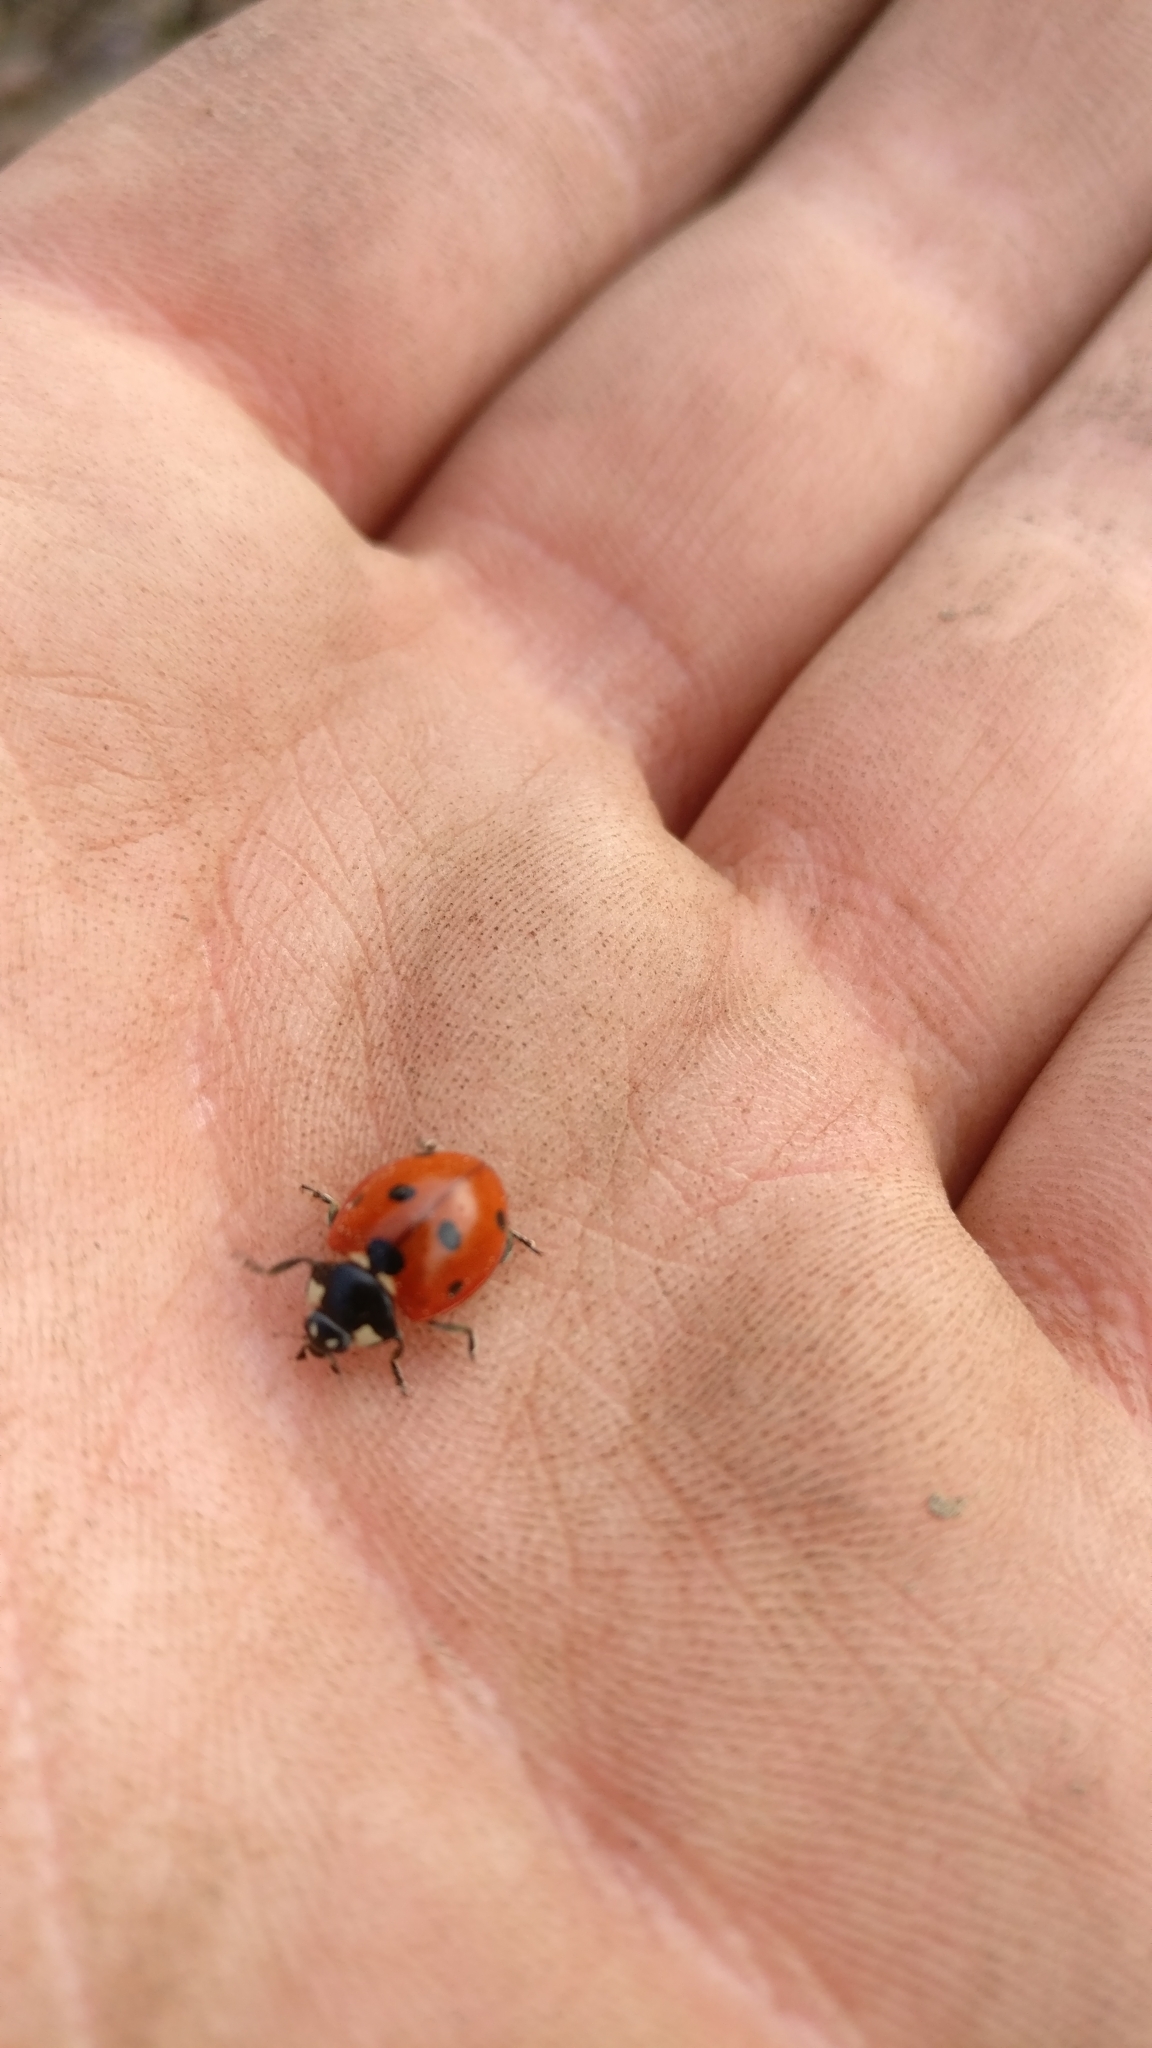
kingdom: Animalia
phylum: Arthropoda
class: Insecta
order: Coleoptera
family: Coccinellidae
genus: Coccinella
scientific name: Coccinella septempunctata
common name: Sevenspotted lady beetle
